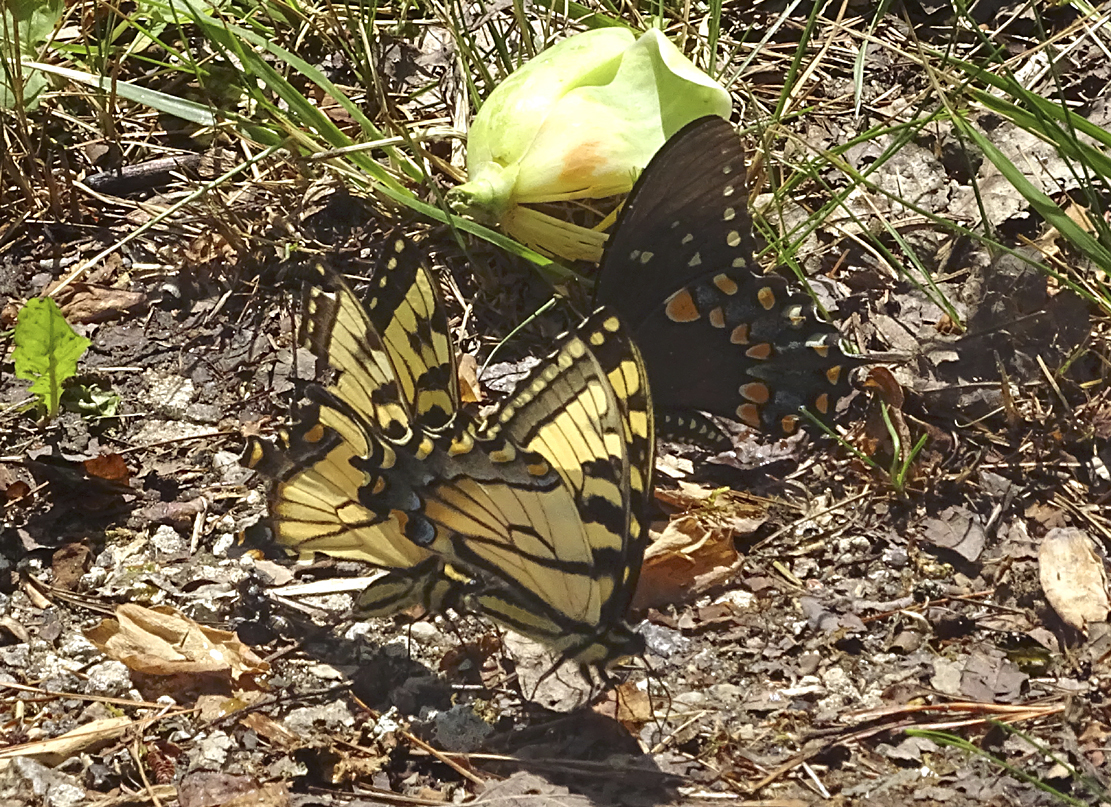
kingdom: Animalia
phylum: Arthropoda
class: Insecta
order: Lepidoptera
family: Papilionidae
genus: Papilio
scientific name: Papilio glaucus
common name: Tiger swallowtail
